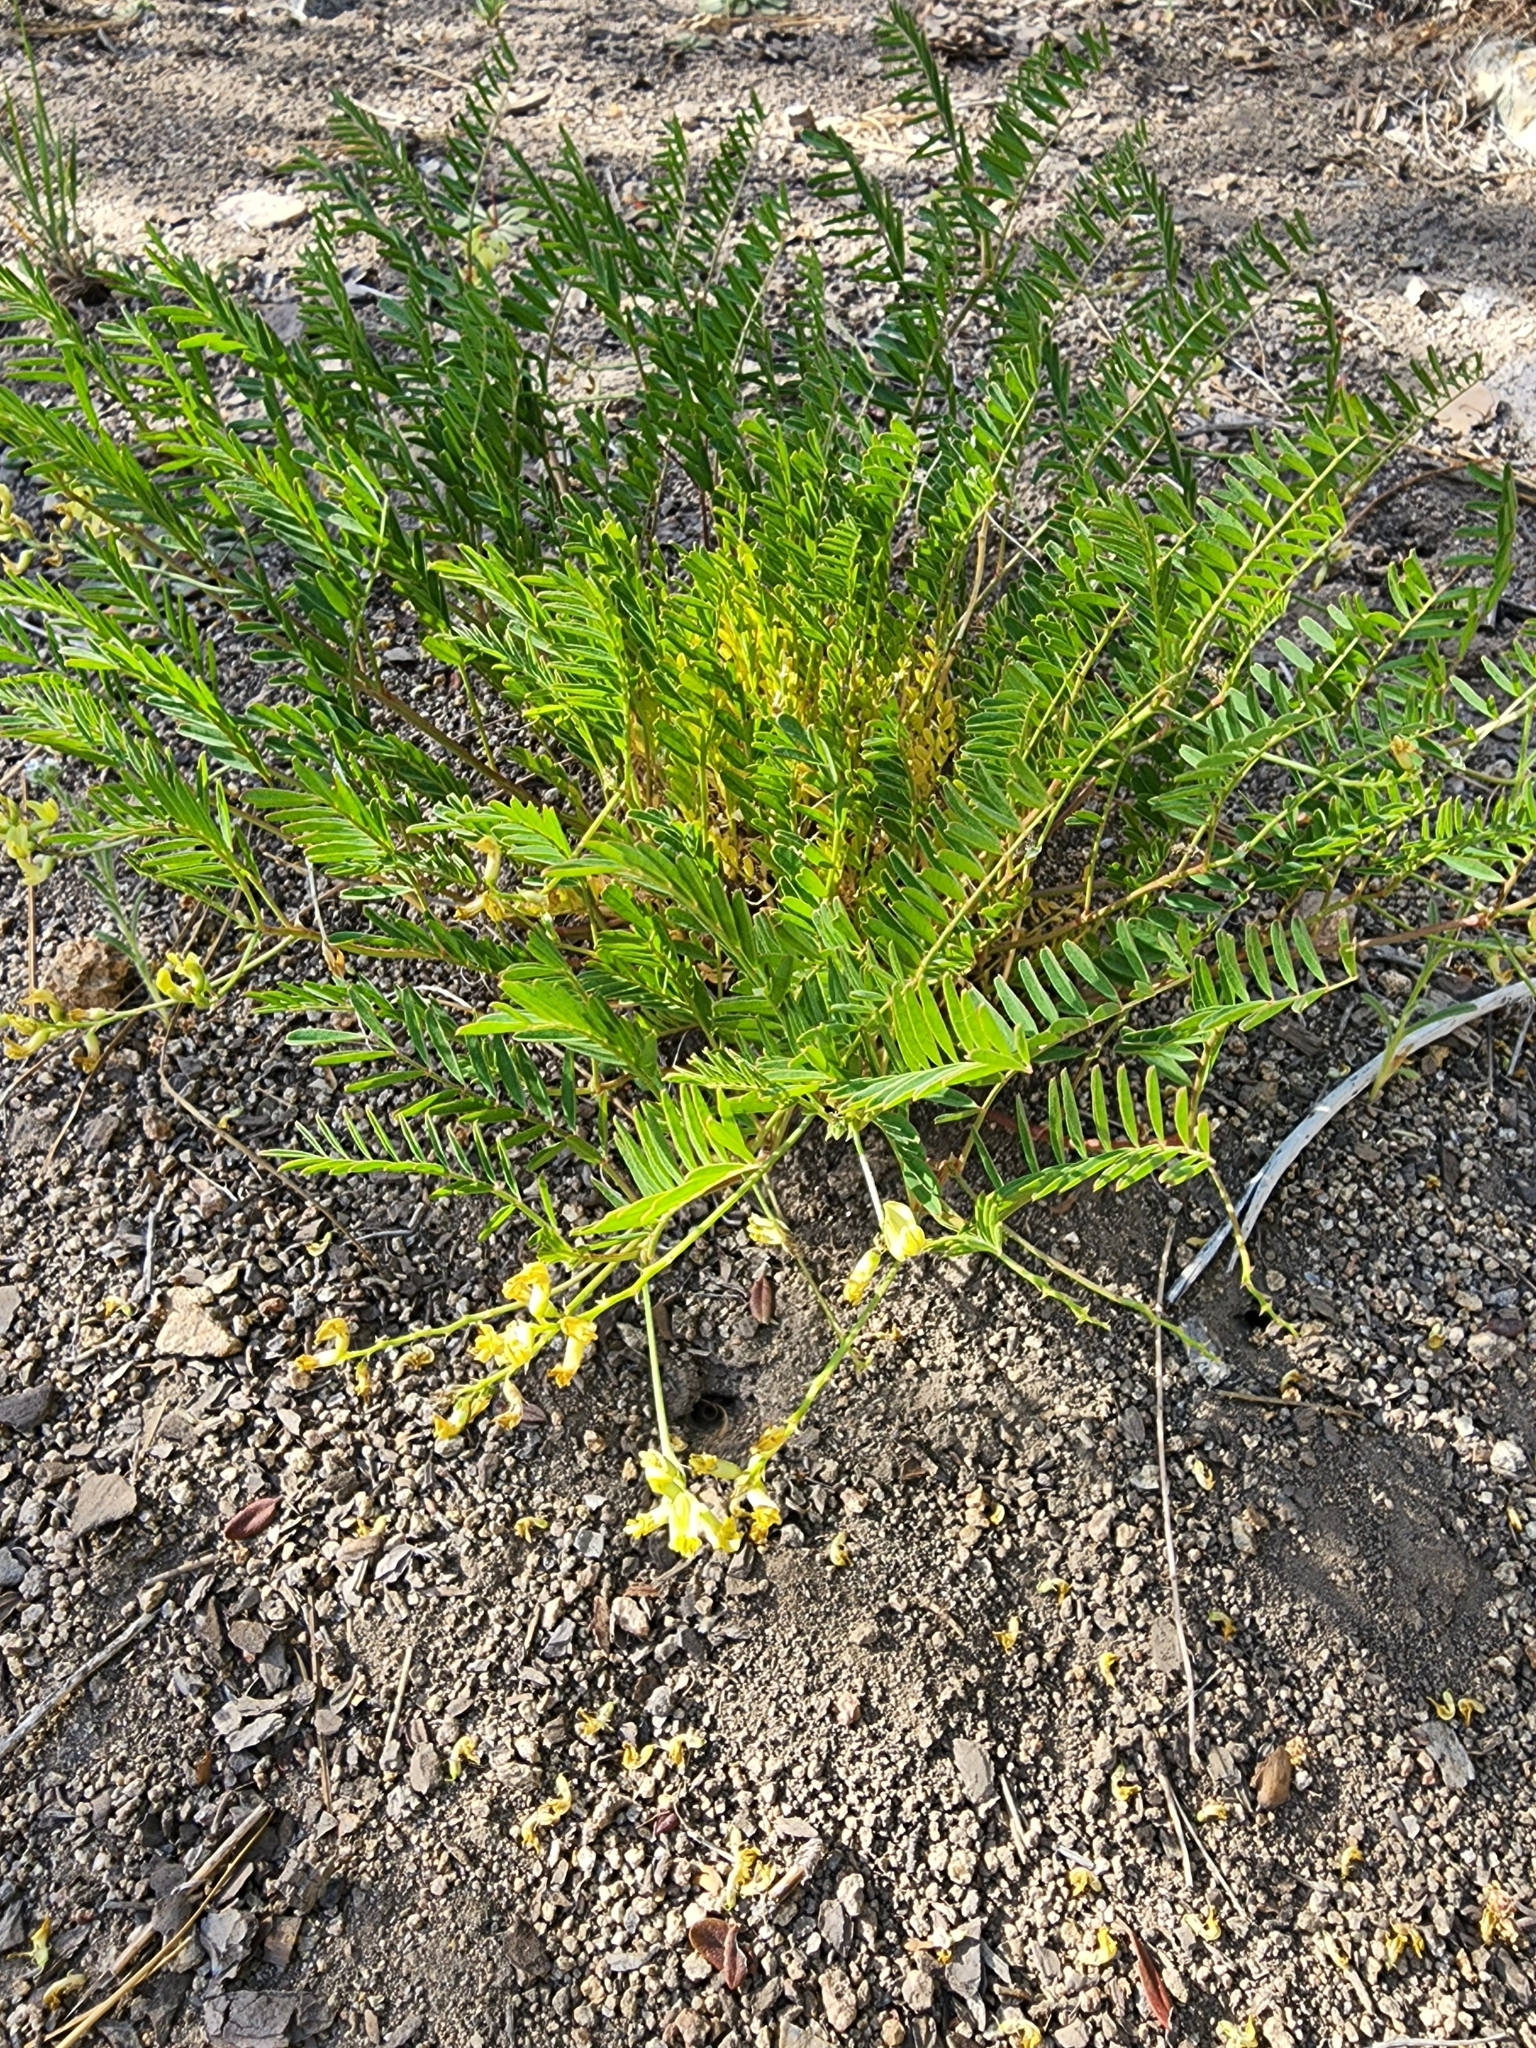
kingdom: Plantae
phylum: Tracheophyta
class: Magnoliopsida
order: Fabales
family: Fabaceae
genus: Astragalus
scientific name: Astragalus douglasii
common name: Jacumba milkvetch
